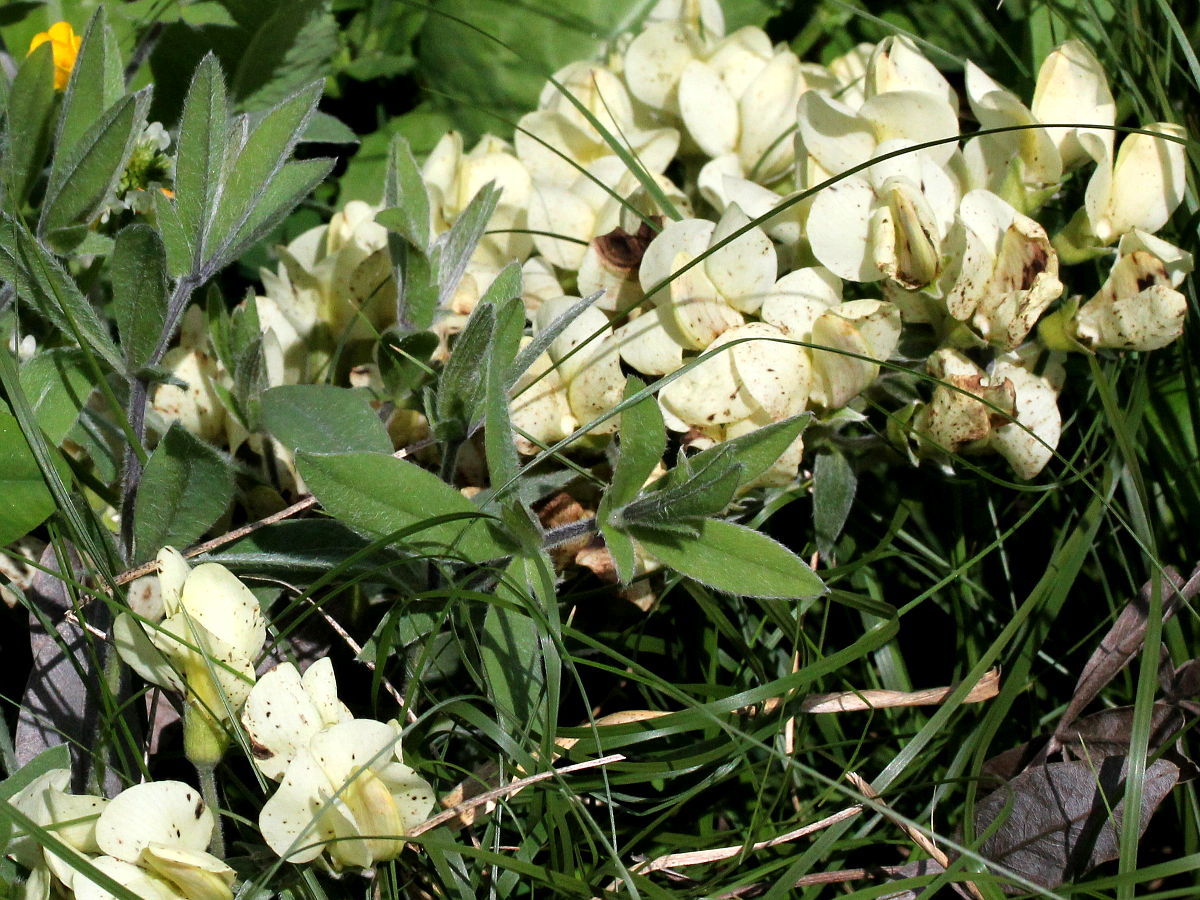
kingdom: Plantae
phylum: Tracheophyta
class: Magnoliopsida
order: Fabales
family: Fabaceae
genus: Baptisia
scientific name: Baptisia bracteata
